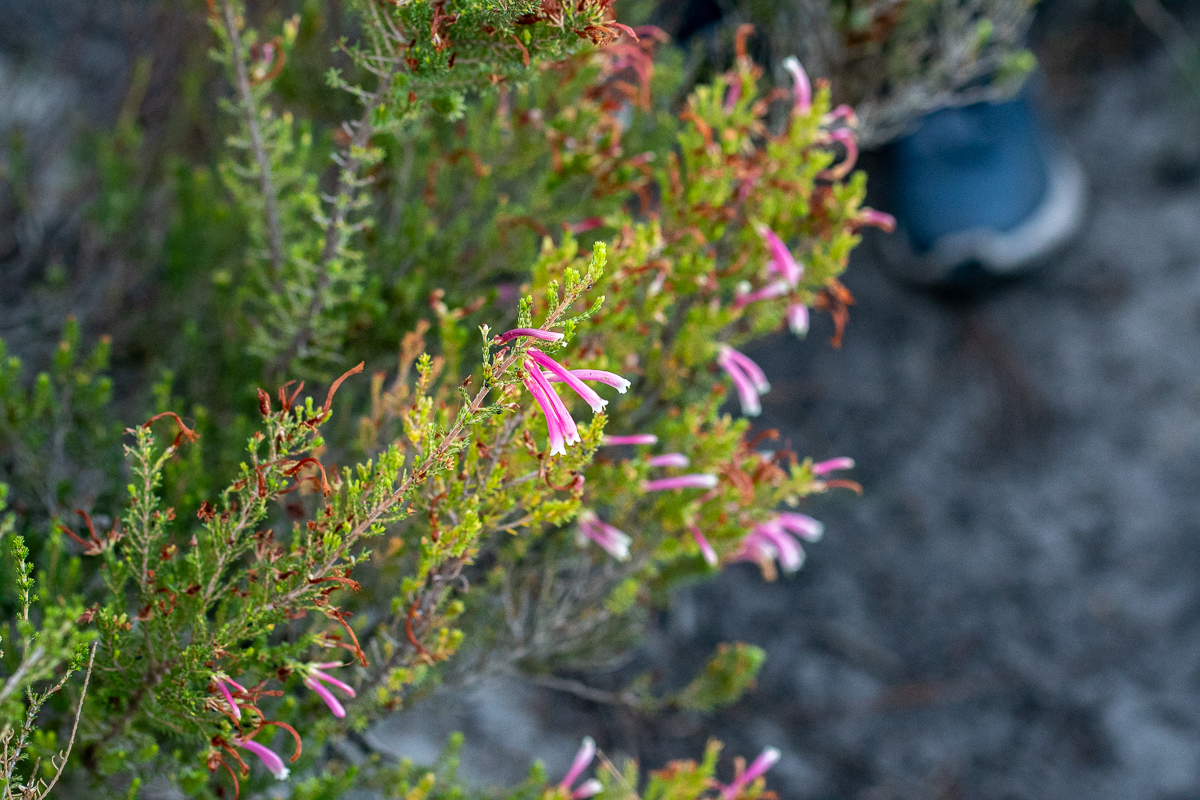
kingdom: Plantae
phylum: Tracheophyta
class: Magnoliopsida
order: Ericales
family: Ericaceae
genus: Erica
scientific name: Erica discolor
